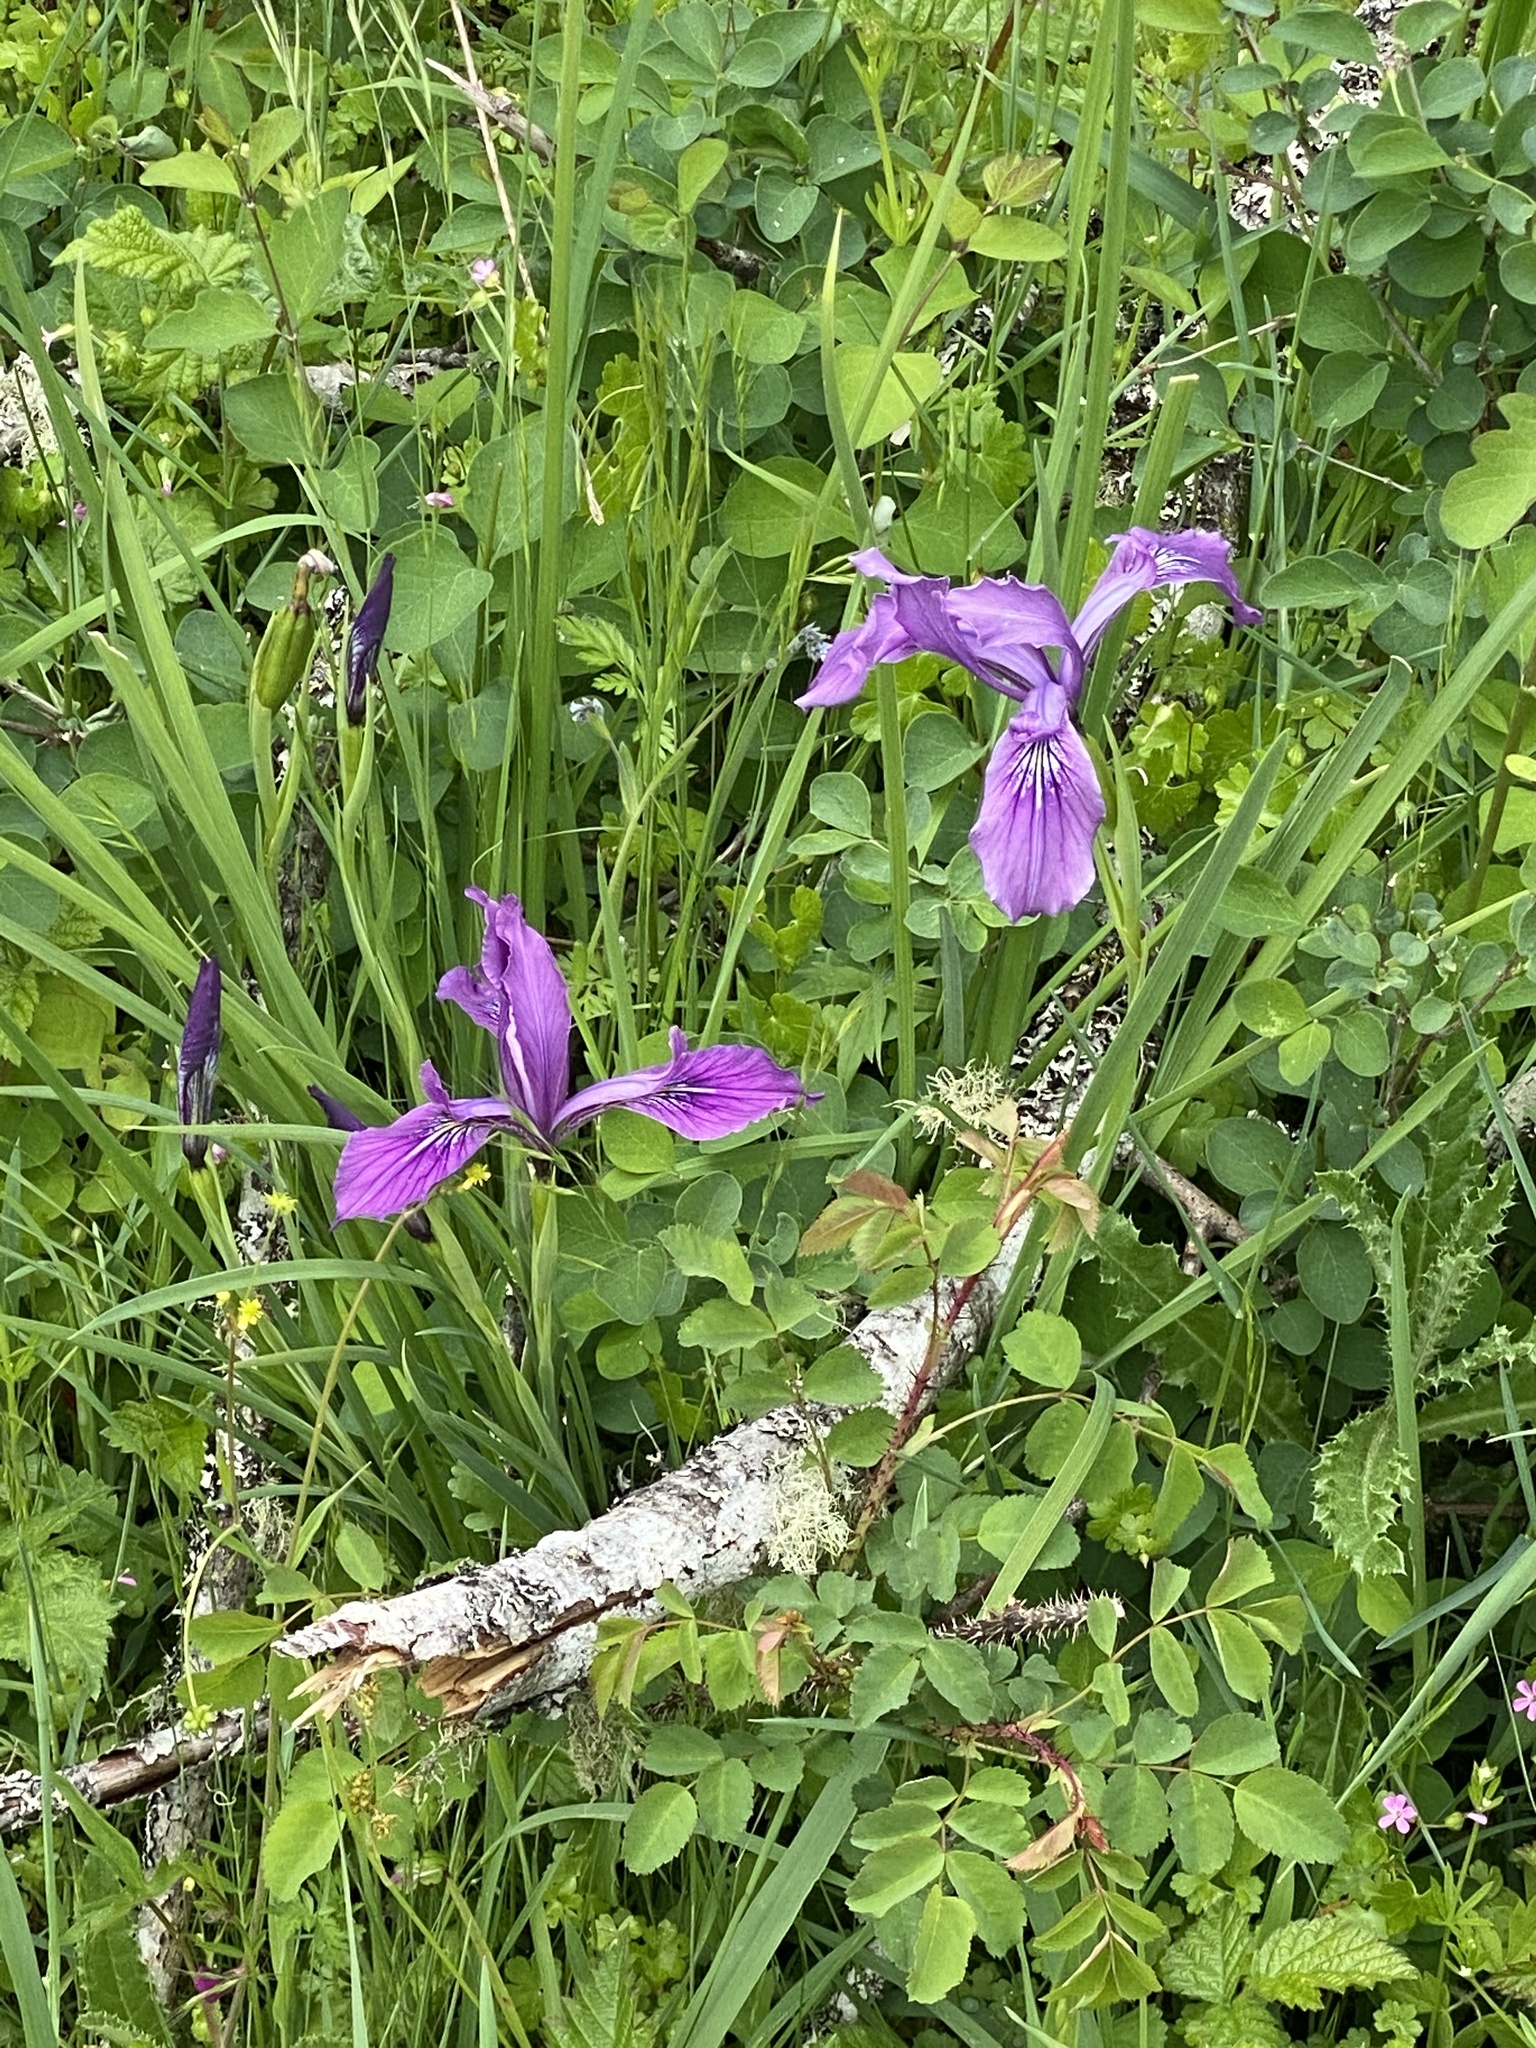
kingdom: Plantae
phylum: Tracheophyta
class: Liliopsida
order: Asparagales
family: Iridaceae
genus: Iris
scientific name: Iris tenax
